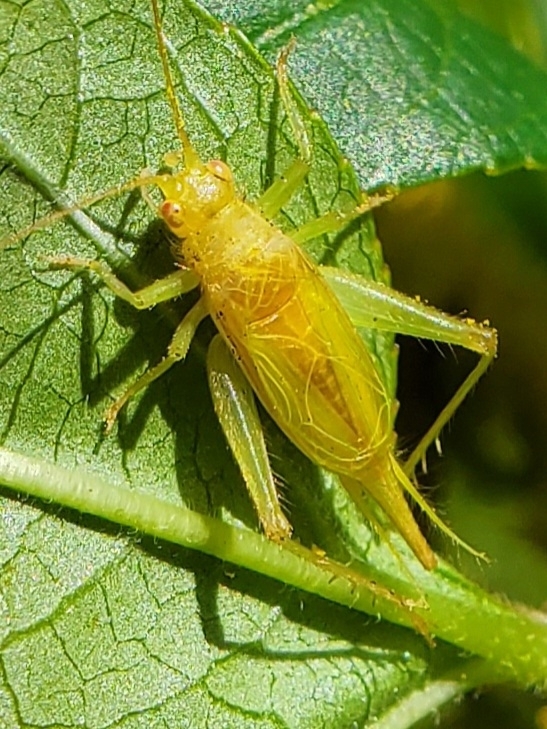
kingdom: Animalia
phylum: Arthropoda
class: Insecta
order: Orthoptera
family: Trigonidiidae
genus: Cyrtoxipha
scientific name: Cyrtoxipha columbiana
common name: Columbian trig
